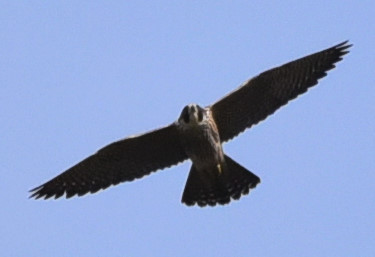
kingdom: Animalia
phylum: Chordata
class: Aves
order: Falconiformes
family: Falconidae
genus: Falco
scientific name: Falco peregrinus
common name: Peregrine falcon
